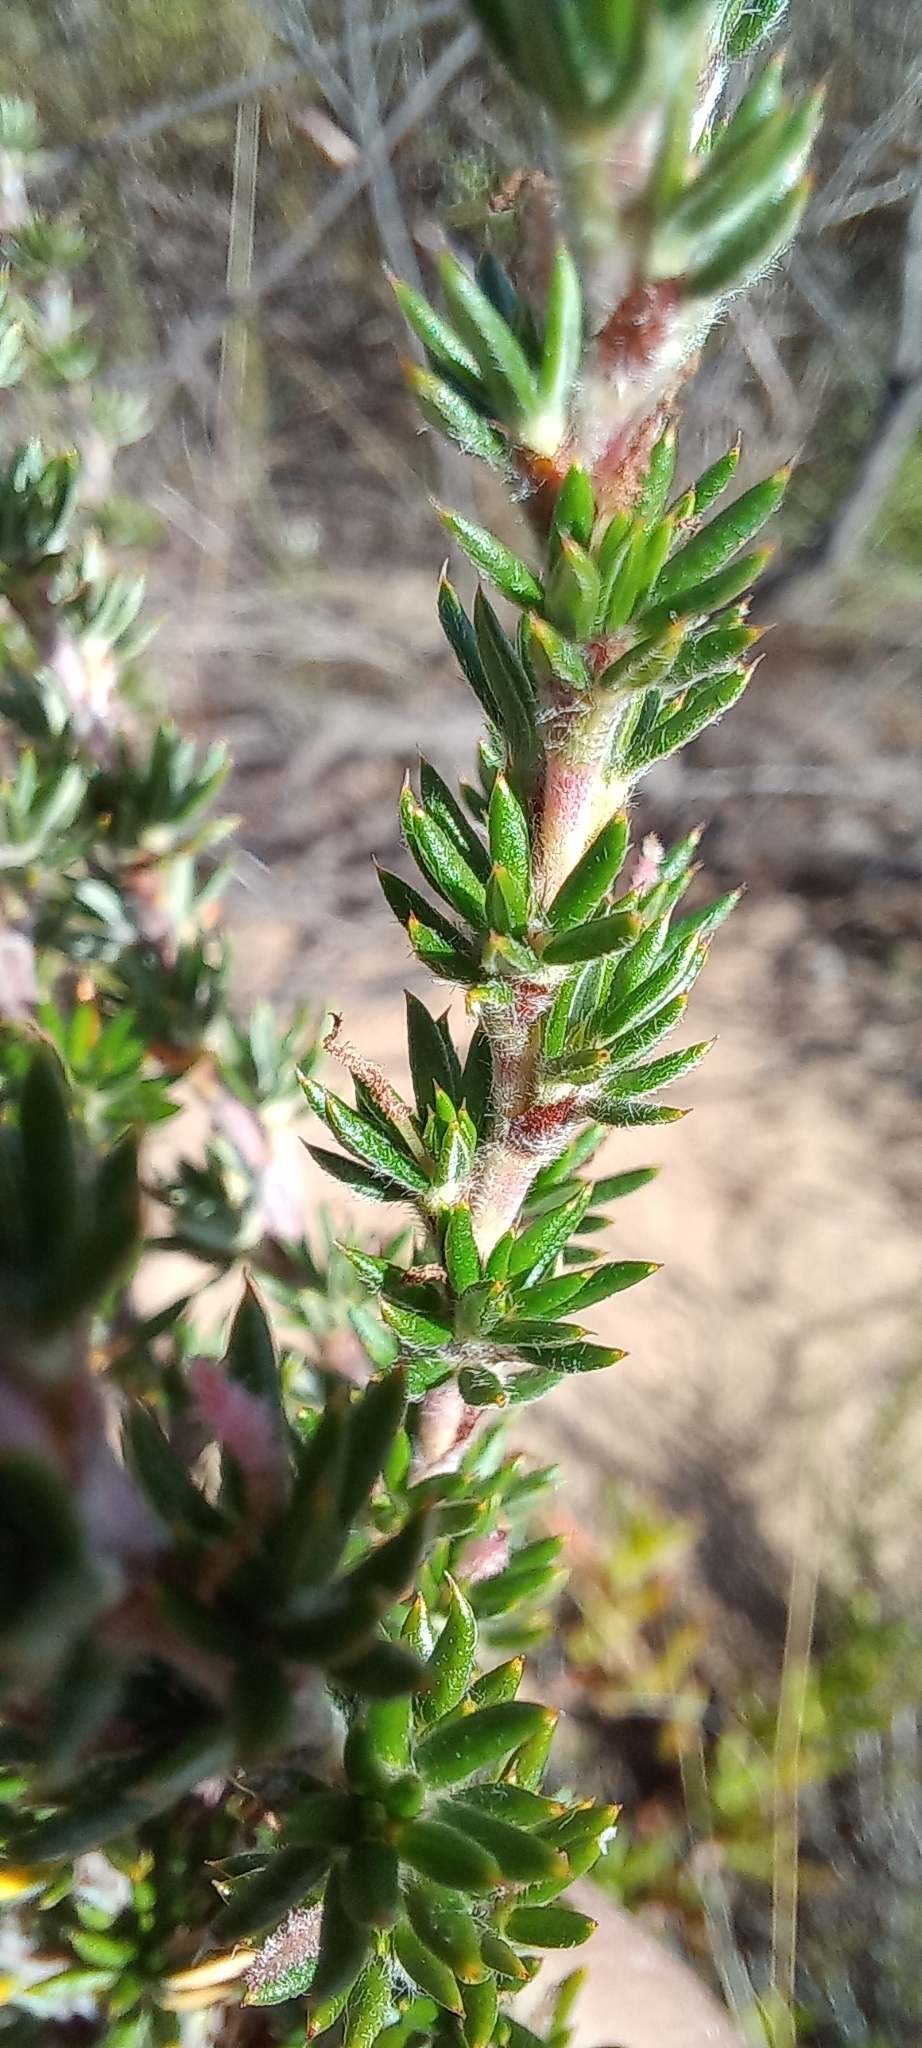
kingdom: Plantae
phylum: Tracheophyta
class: Magnoliopsida
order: Rosales
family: Rosaceae
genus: Cliffortia
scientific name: Cliffortia stricta
